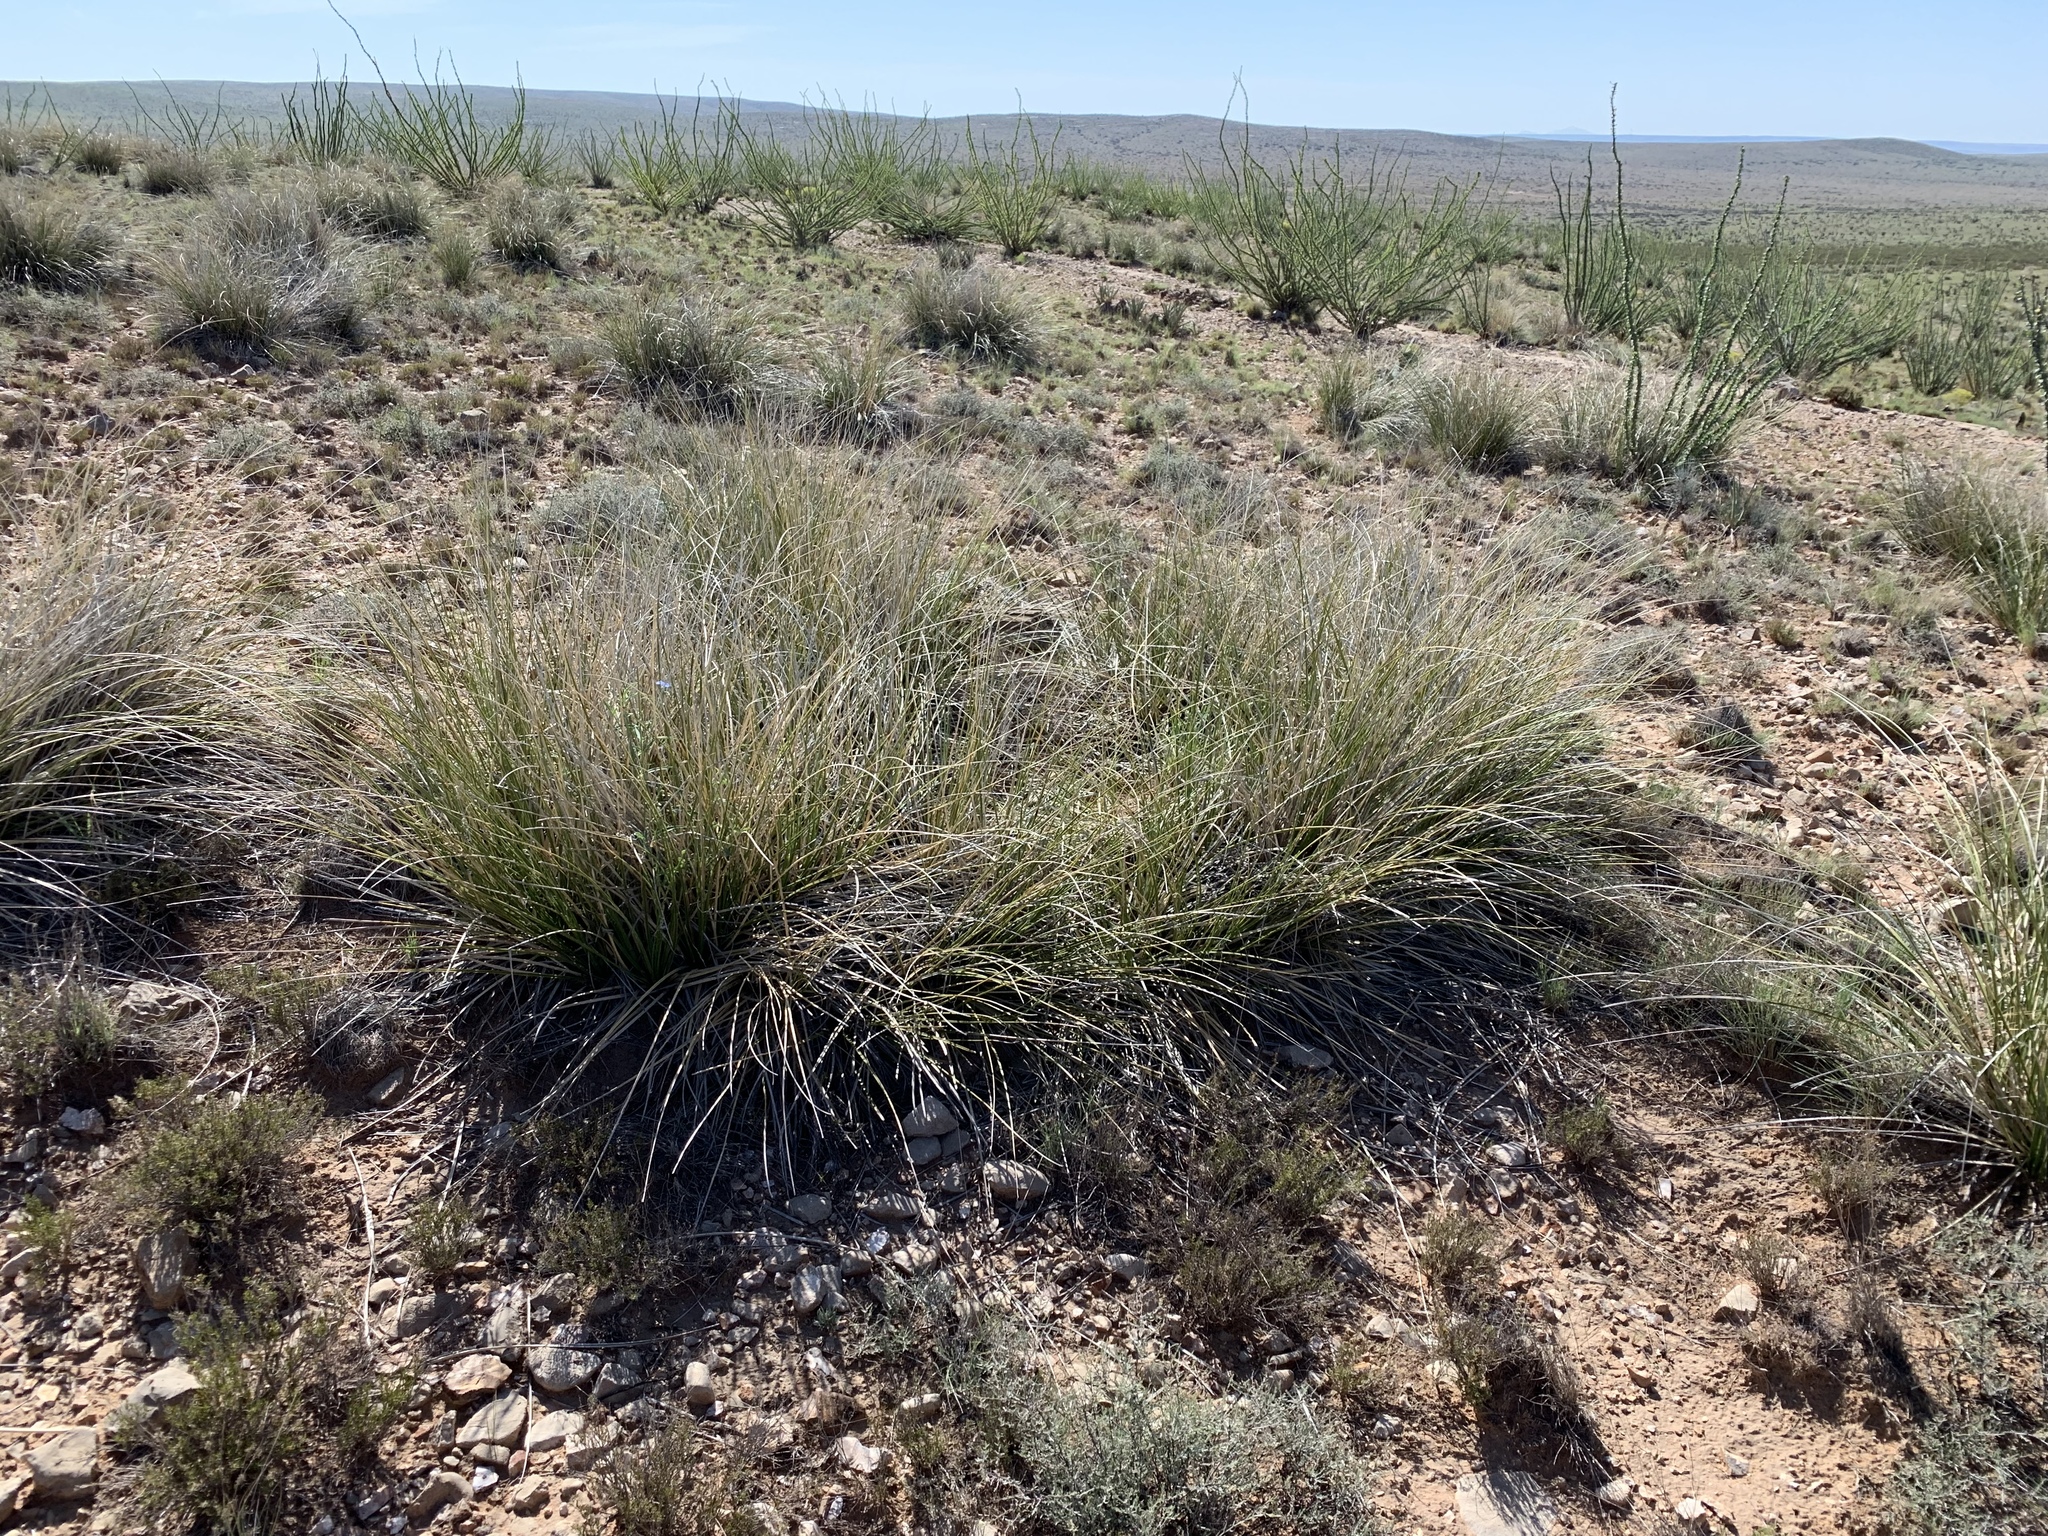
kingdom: Plantae
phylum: Tracheophyta
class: Liliopsida
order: Asparagales
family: Asparagaceae
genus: Nolina
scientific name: Nolina texana
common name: Texas sacahuiste
